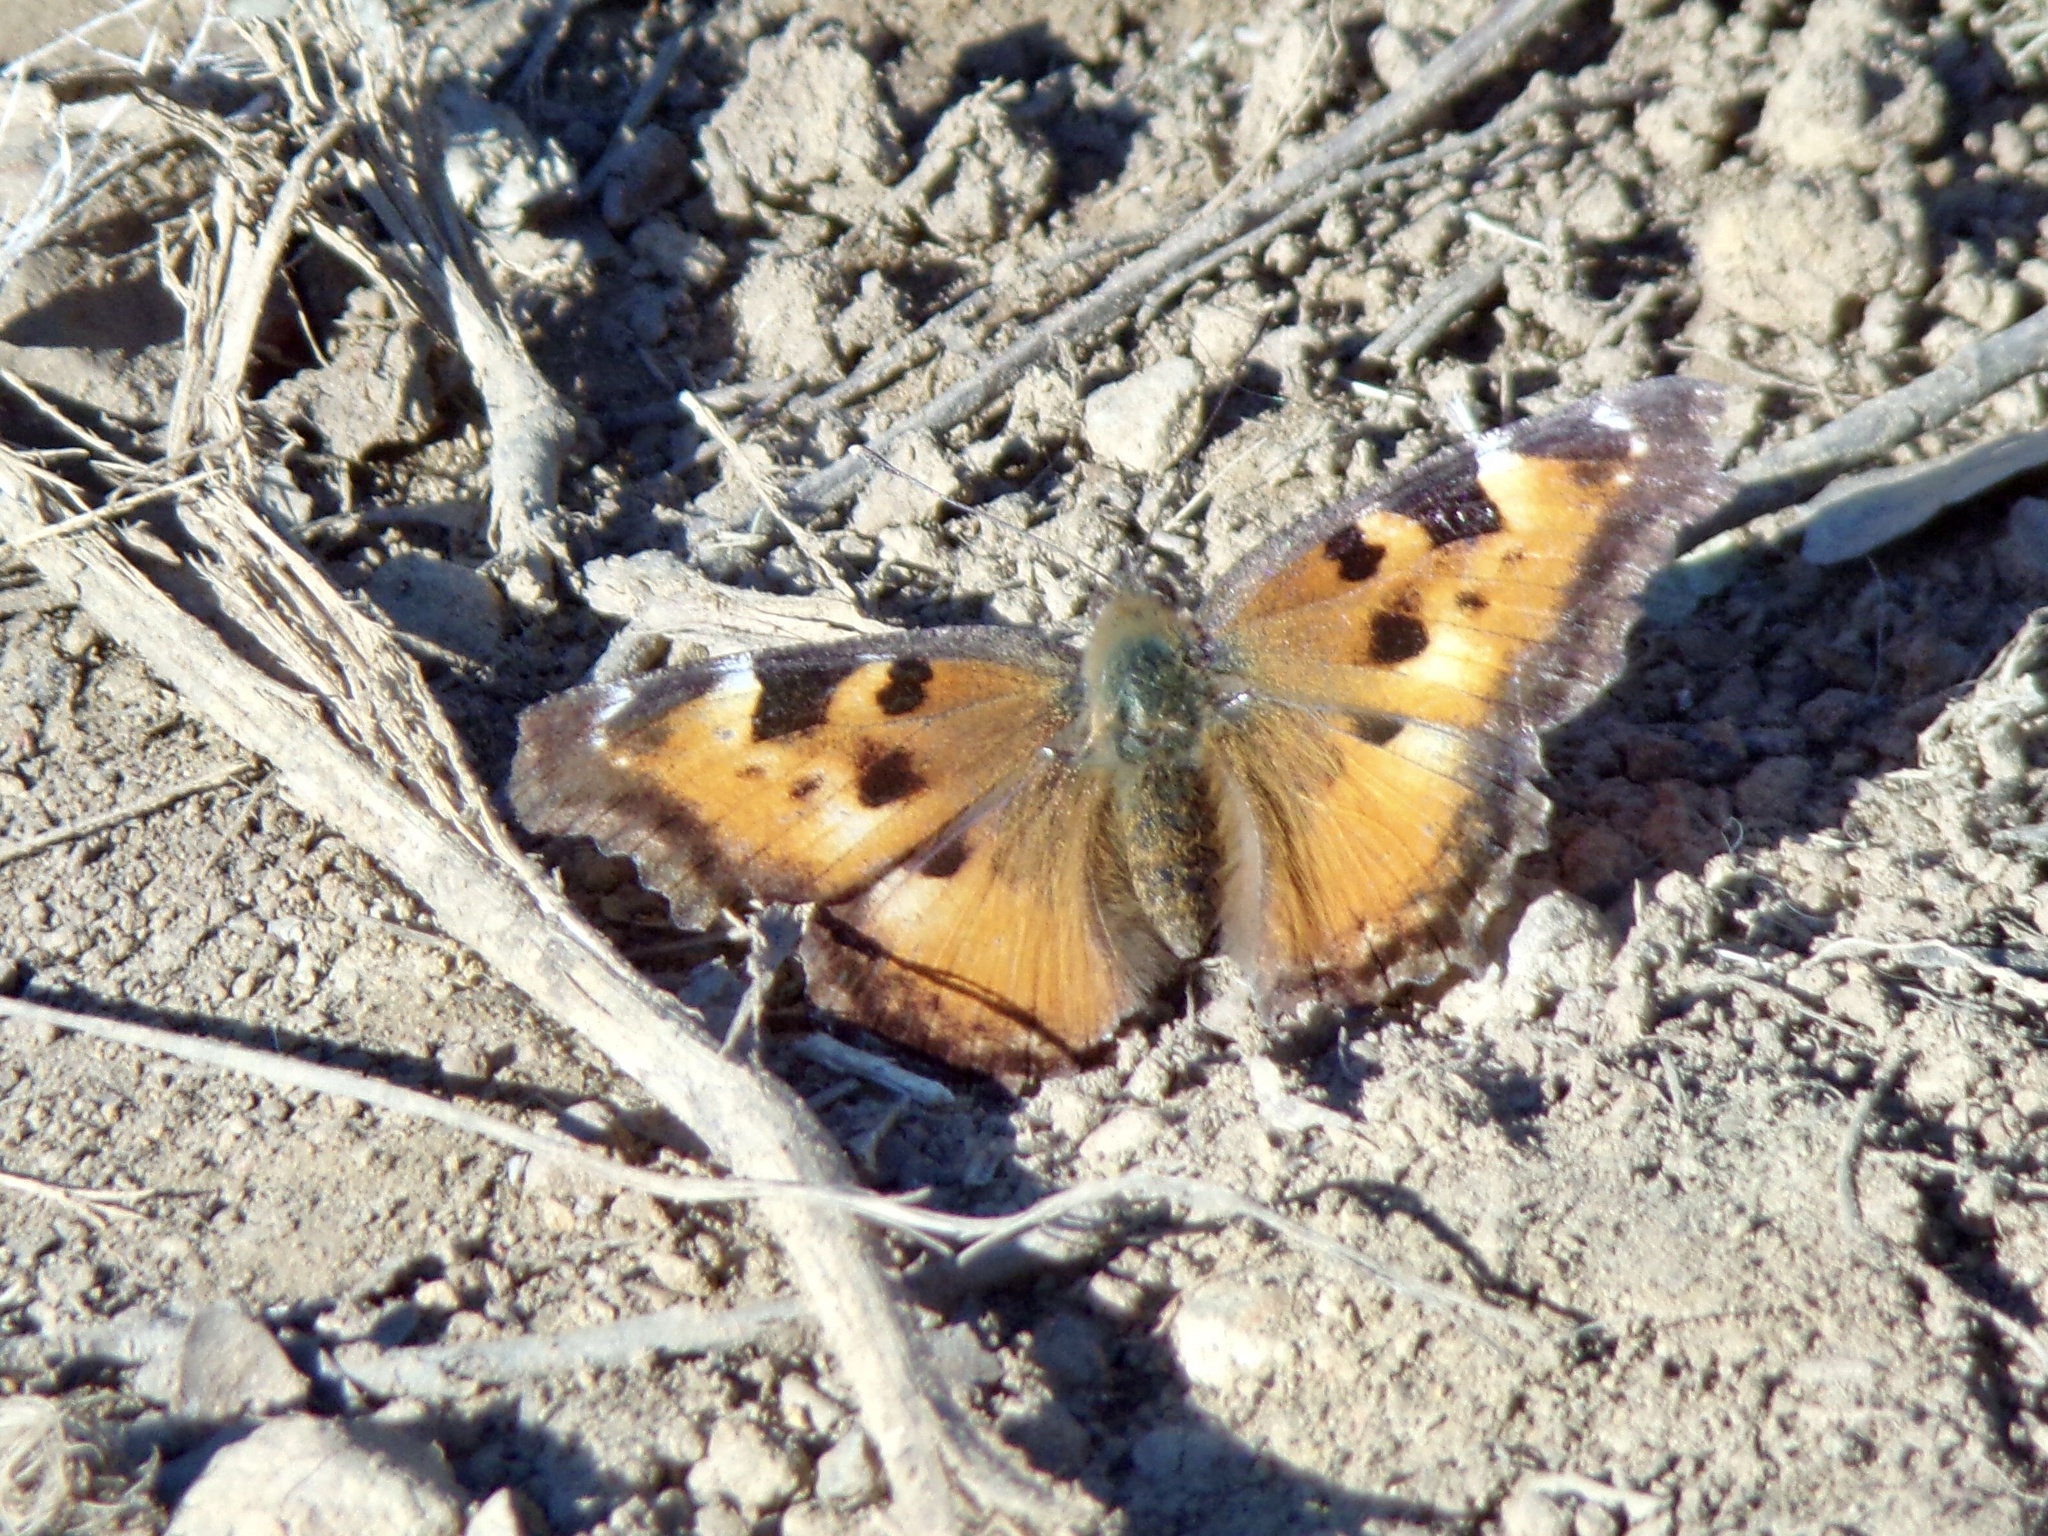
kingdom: Animalia
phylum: Arthropoda
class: Insecta
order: Lepidoptera
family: Nymphalidae
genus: Nymphalis
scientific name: Nymphalis californica
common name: California tortoiseshell
